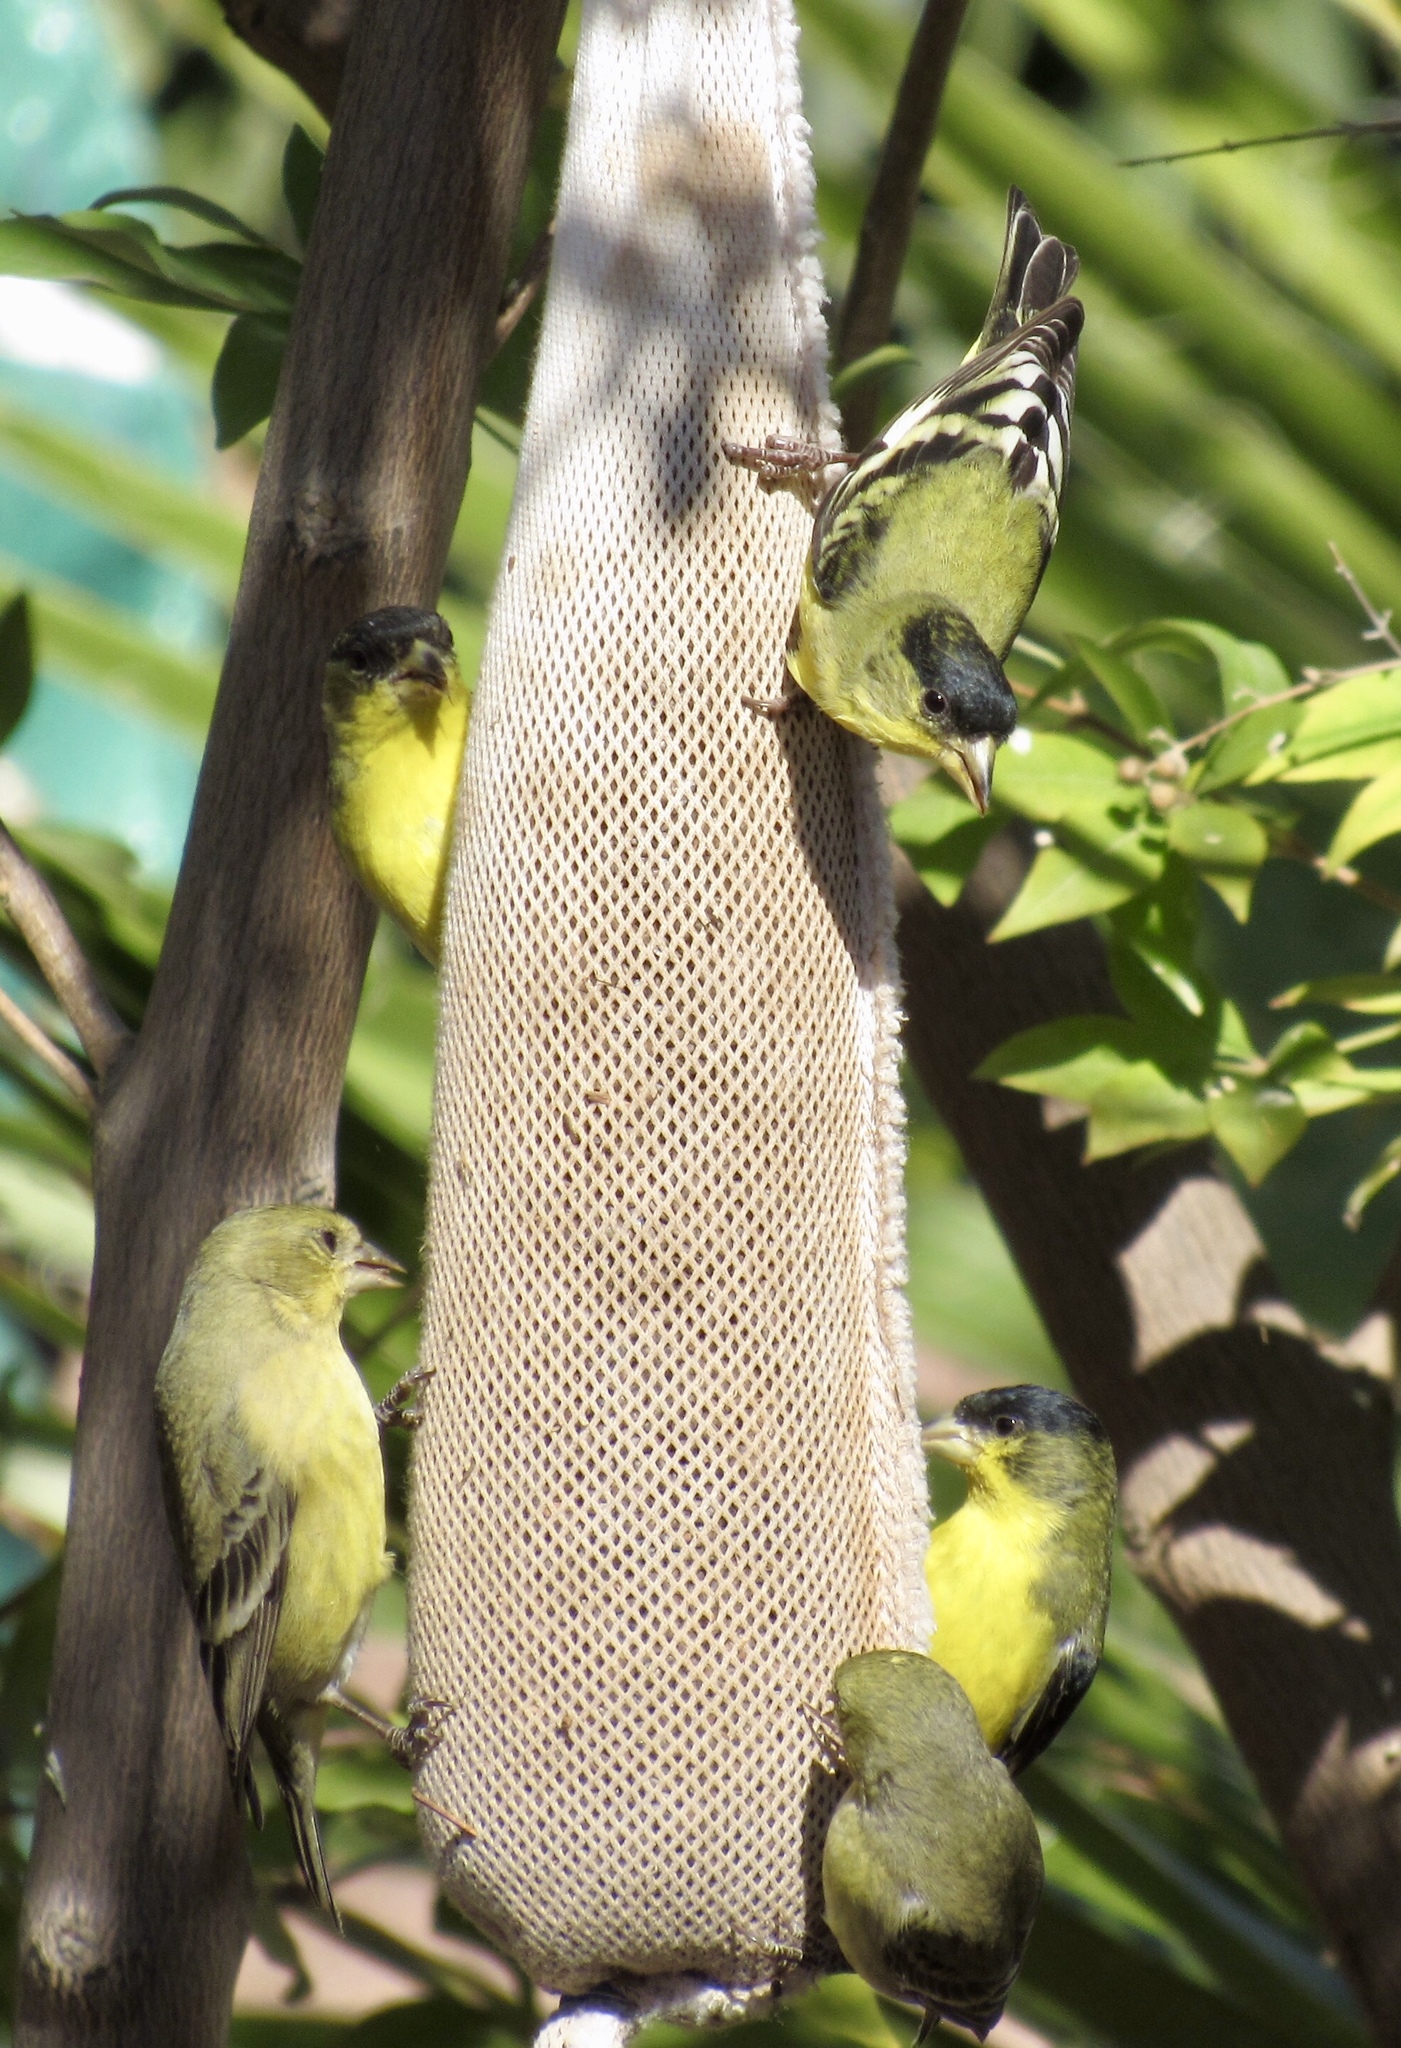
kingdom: Animalia
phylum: Chordata
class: Aves
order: Passeriformes
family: Fringillidae
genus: Spinus
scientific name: Spinus psaltria
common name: Lesser goldfinch
